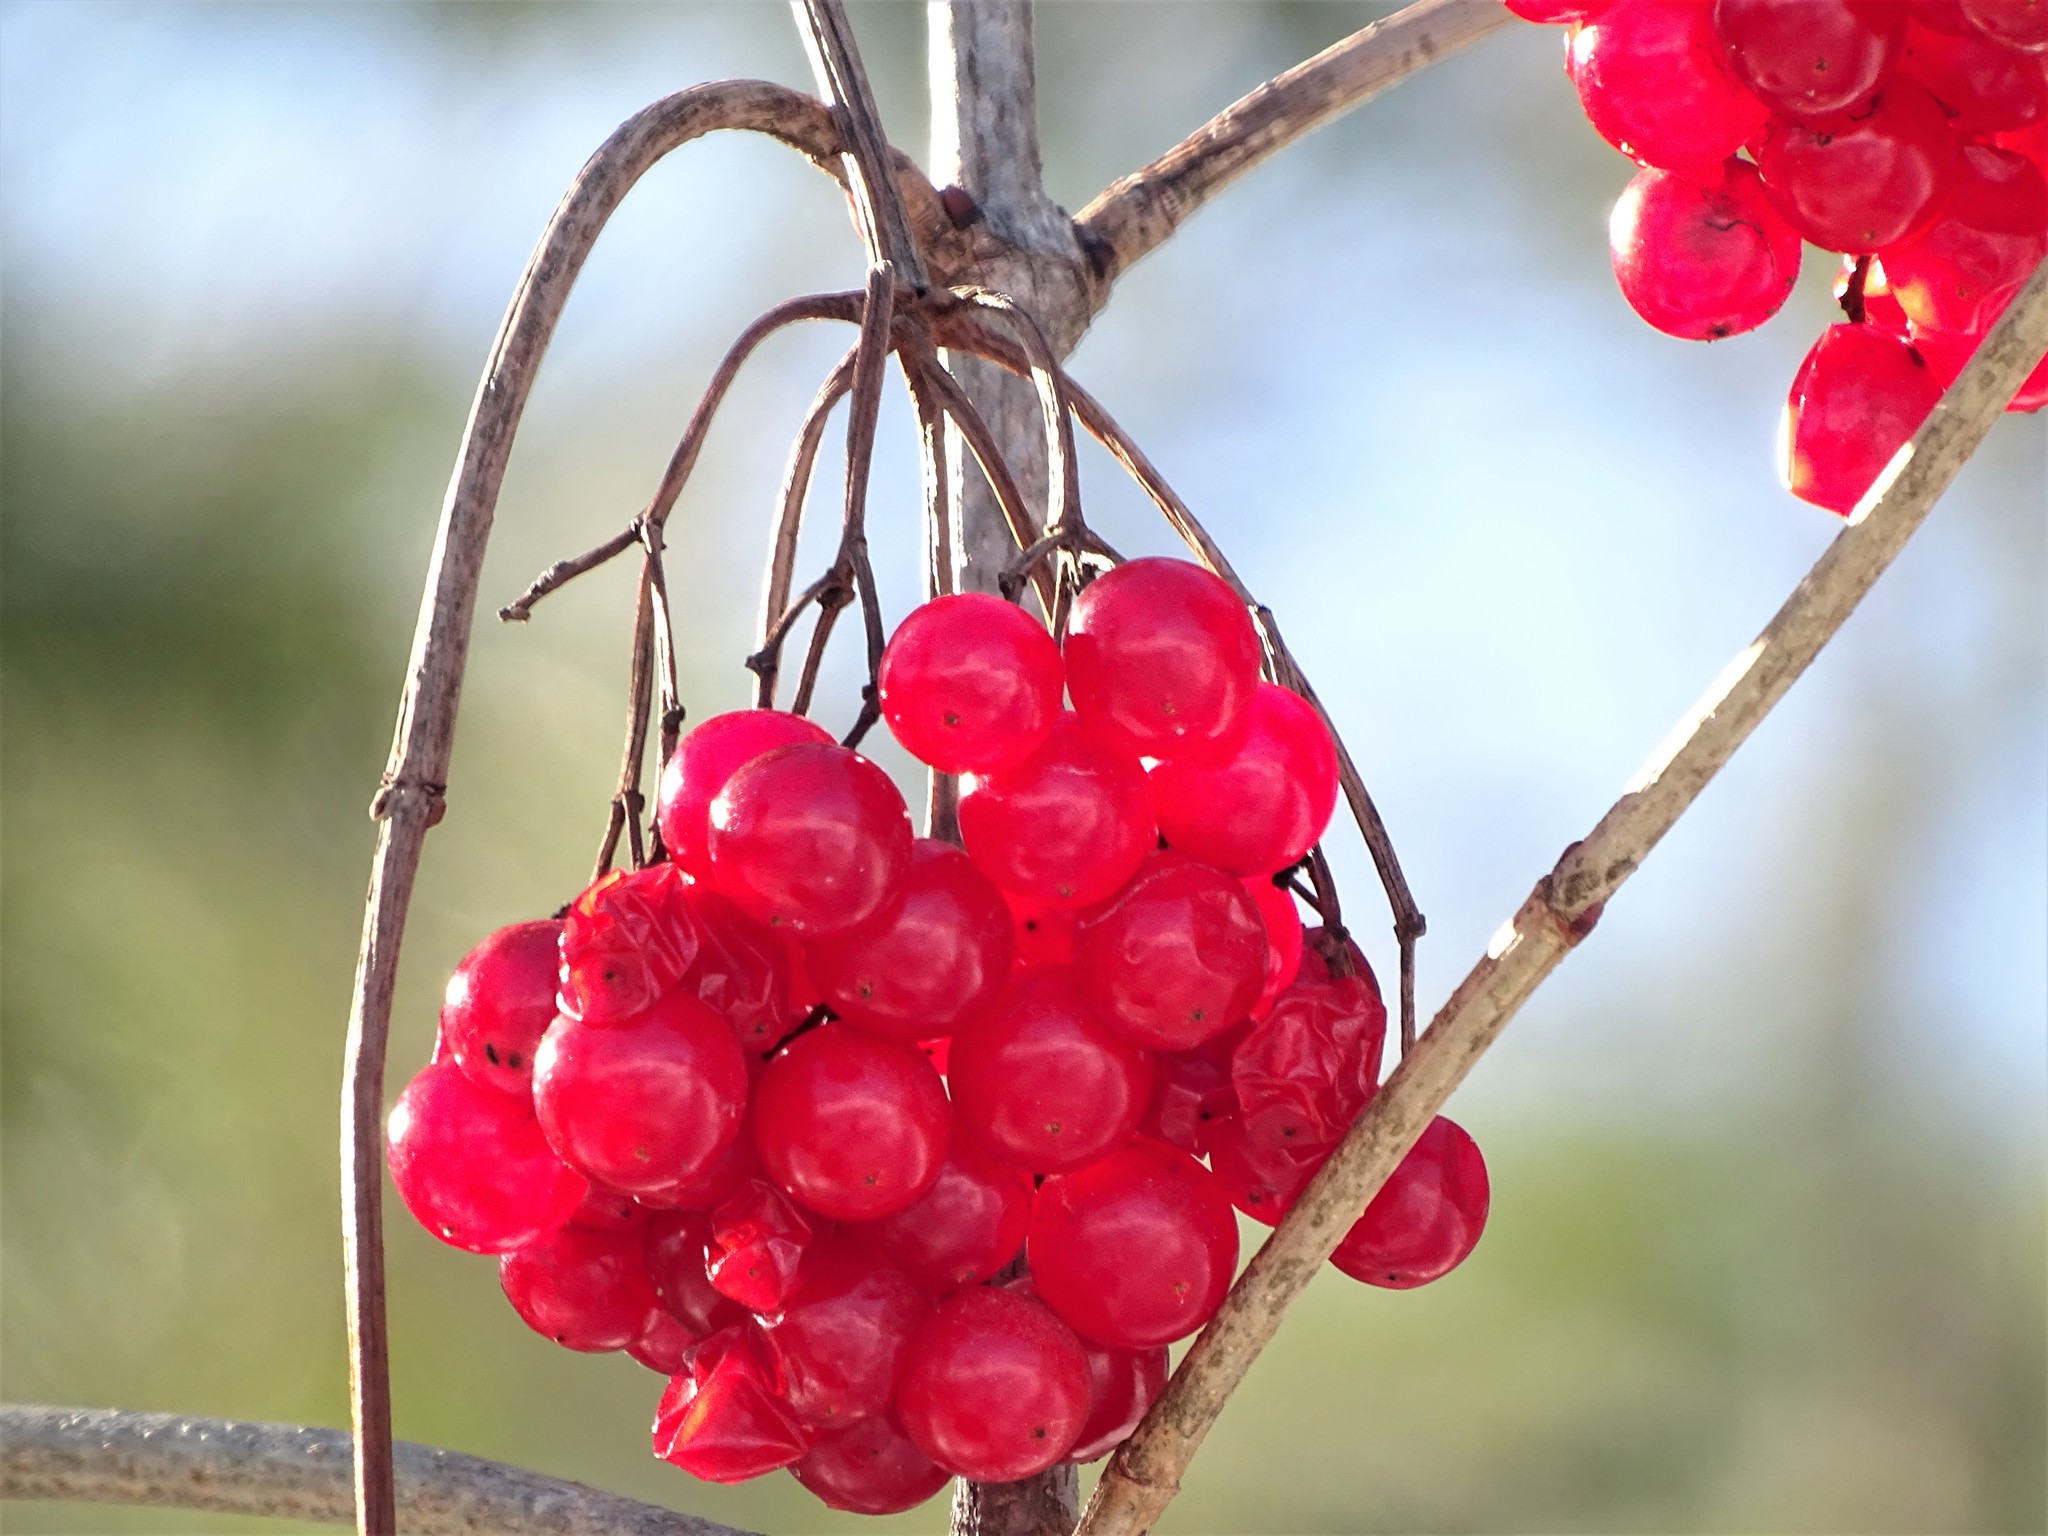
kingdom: Plantae
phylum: Tracheophyta
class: Magnoliopsida
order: Dipsacales
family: Viburnaceae
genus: Viburnum
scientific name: Viburnum opulus
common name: Guelder-rose
